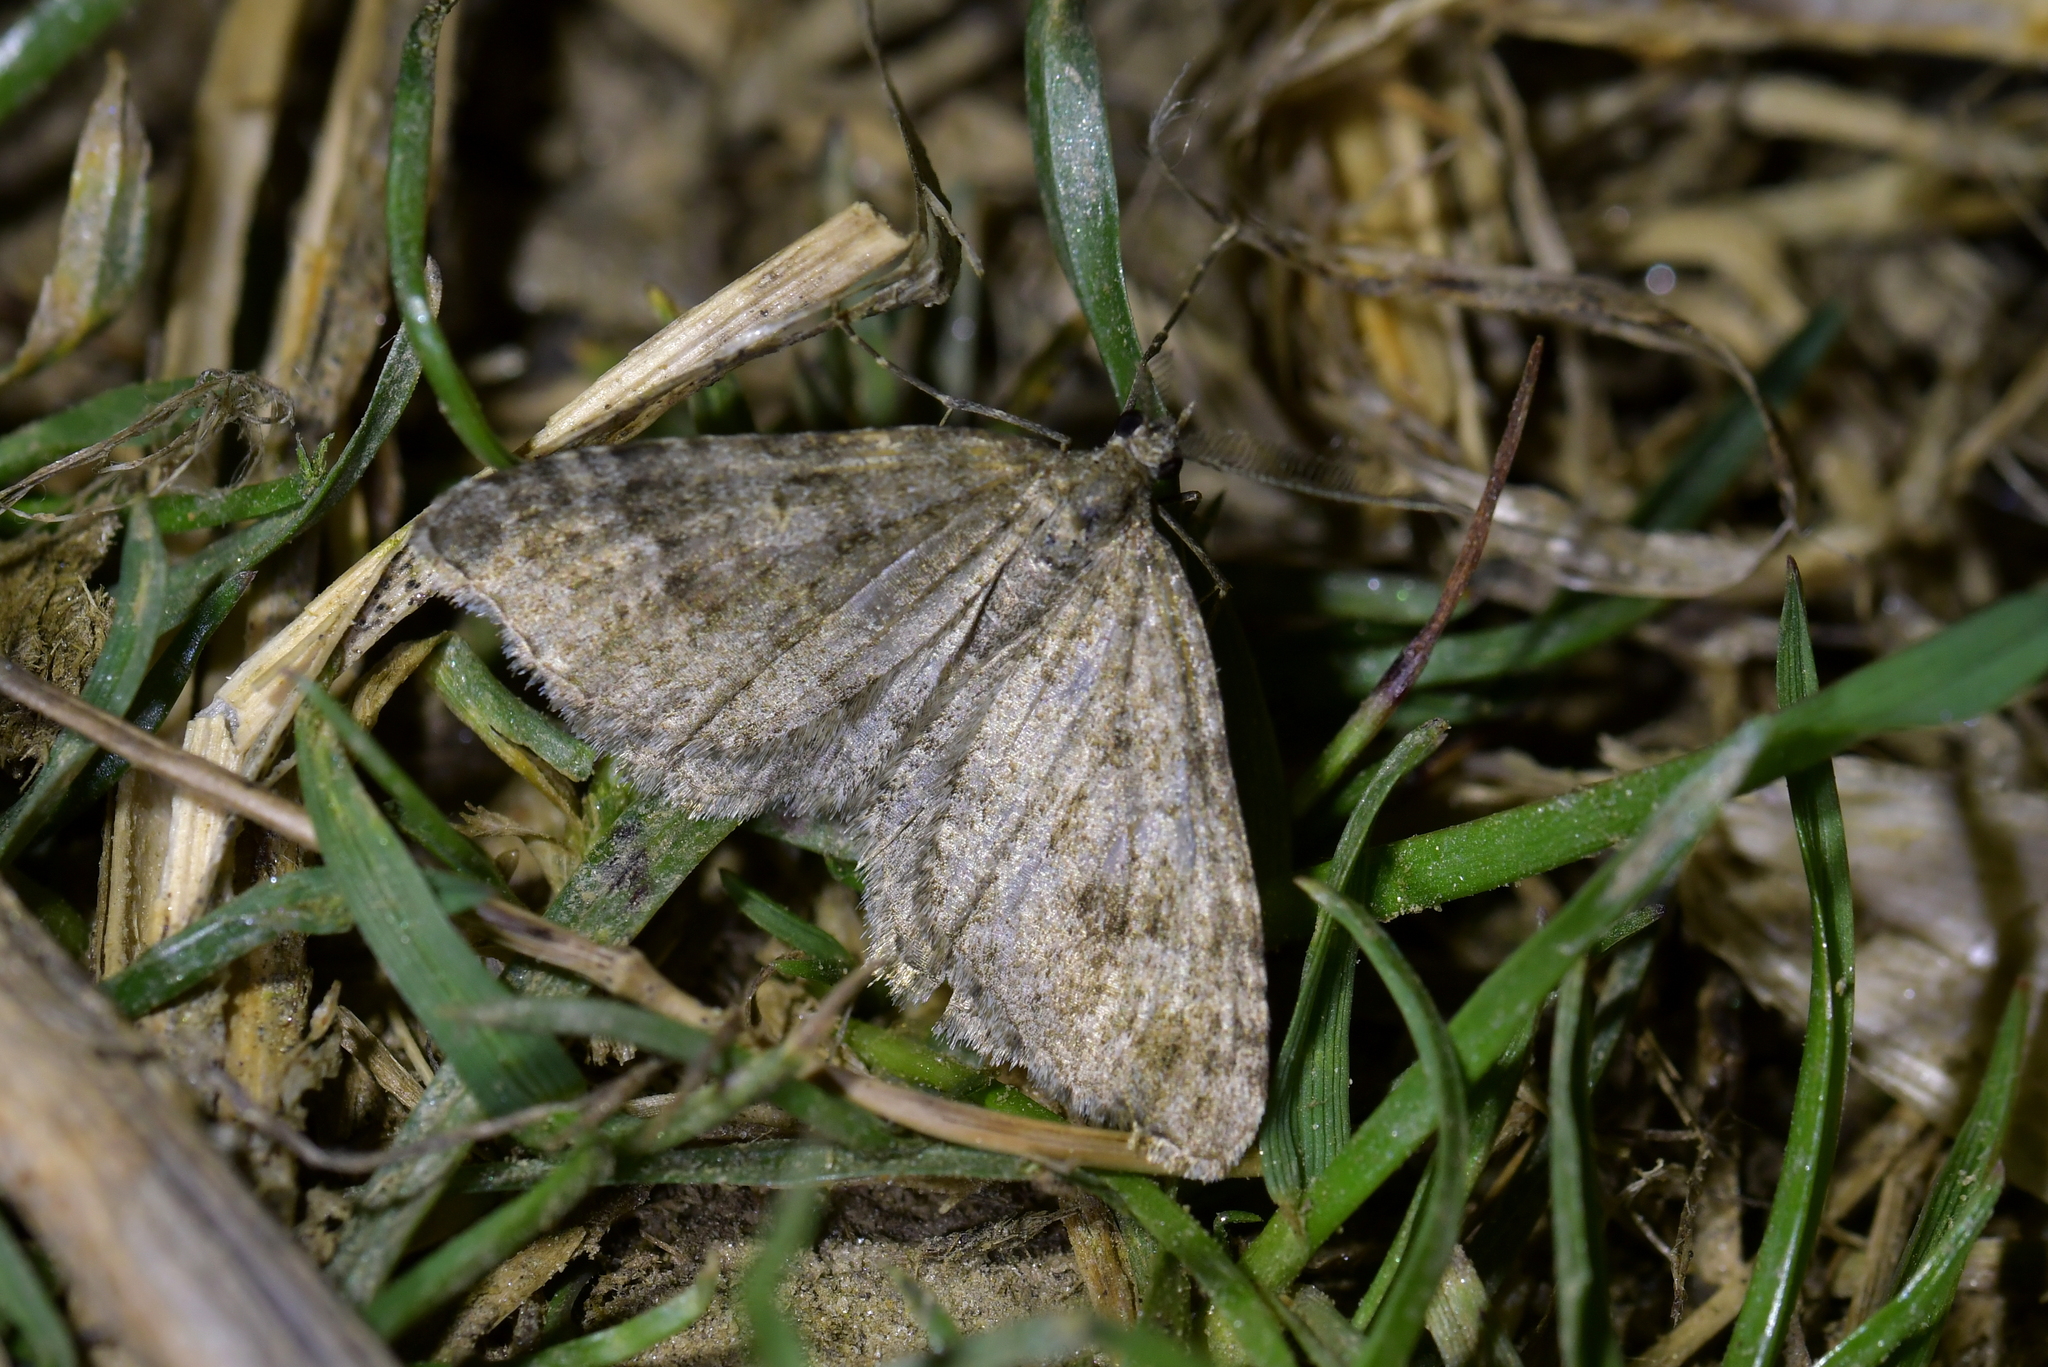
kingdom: Animalia
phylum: Arthropoda
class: Insecta
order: Lepidoptera
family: Geometridae
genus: Helastia
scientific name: Helastia corcularia
